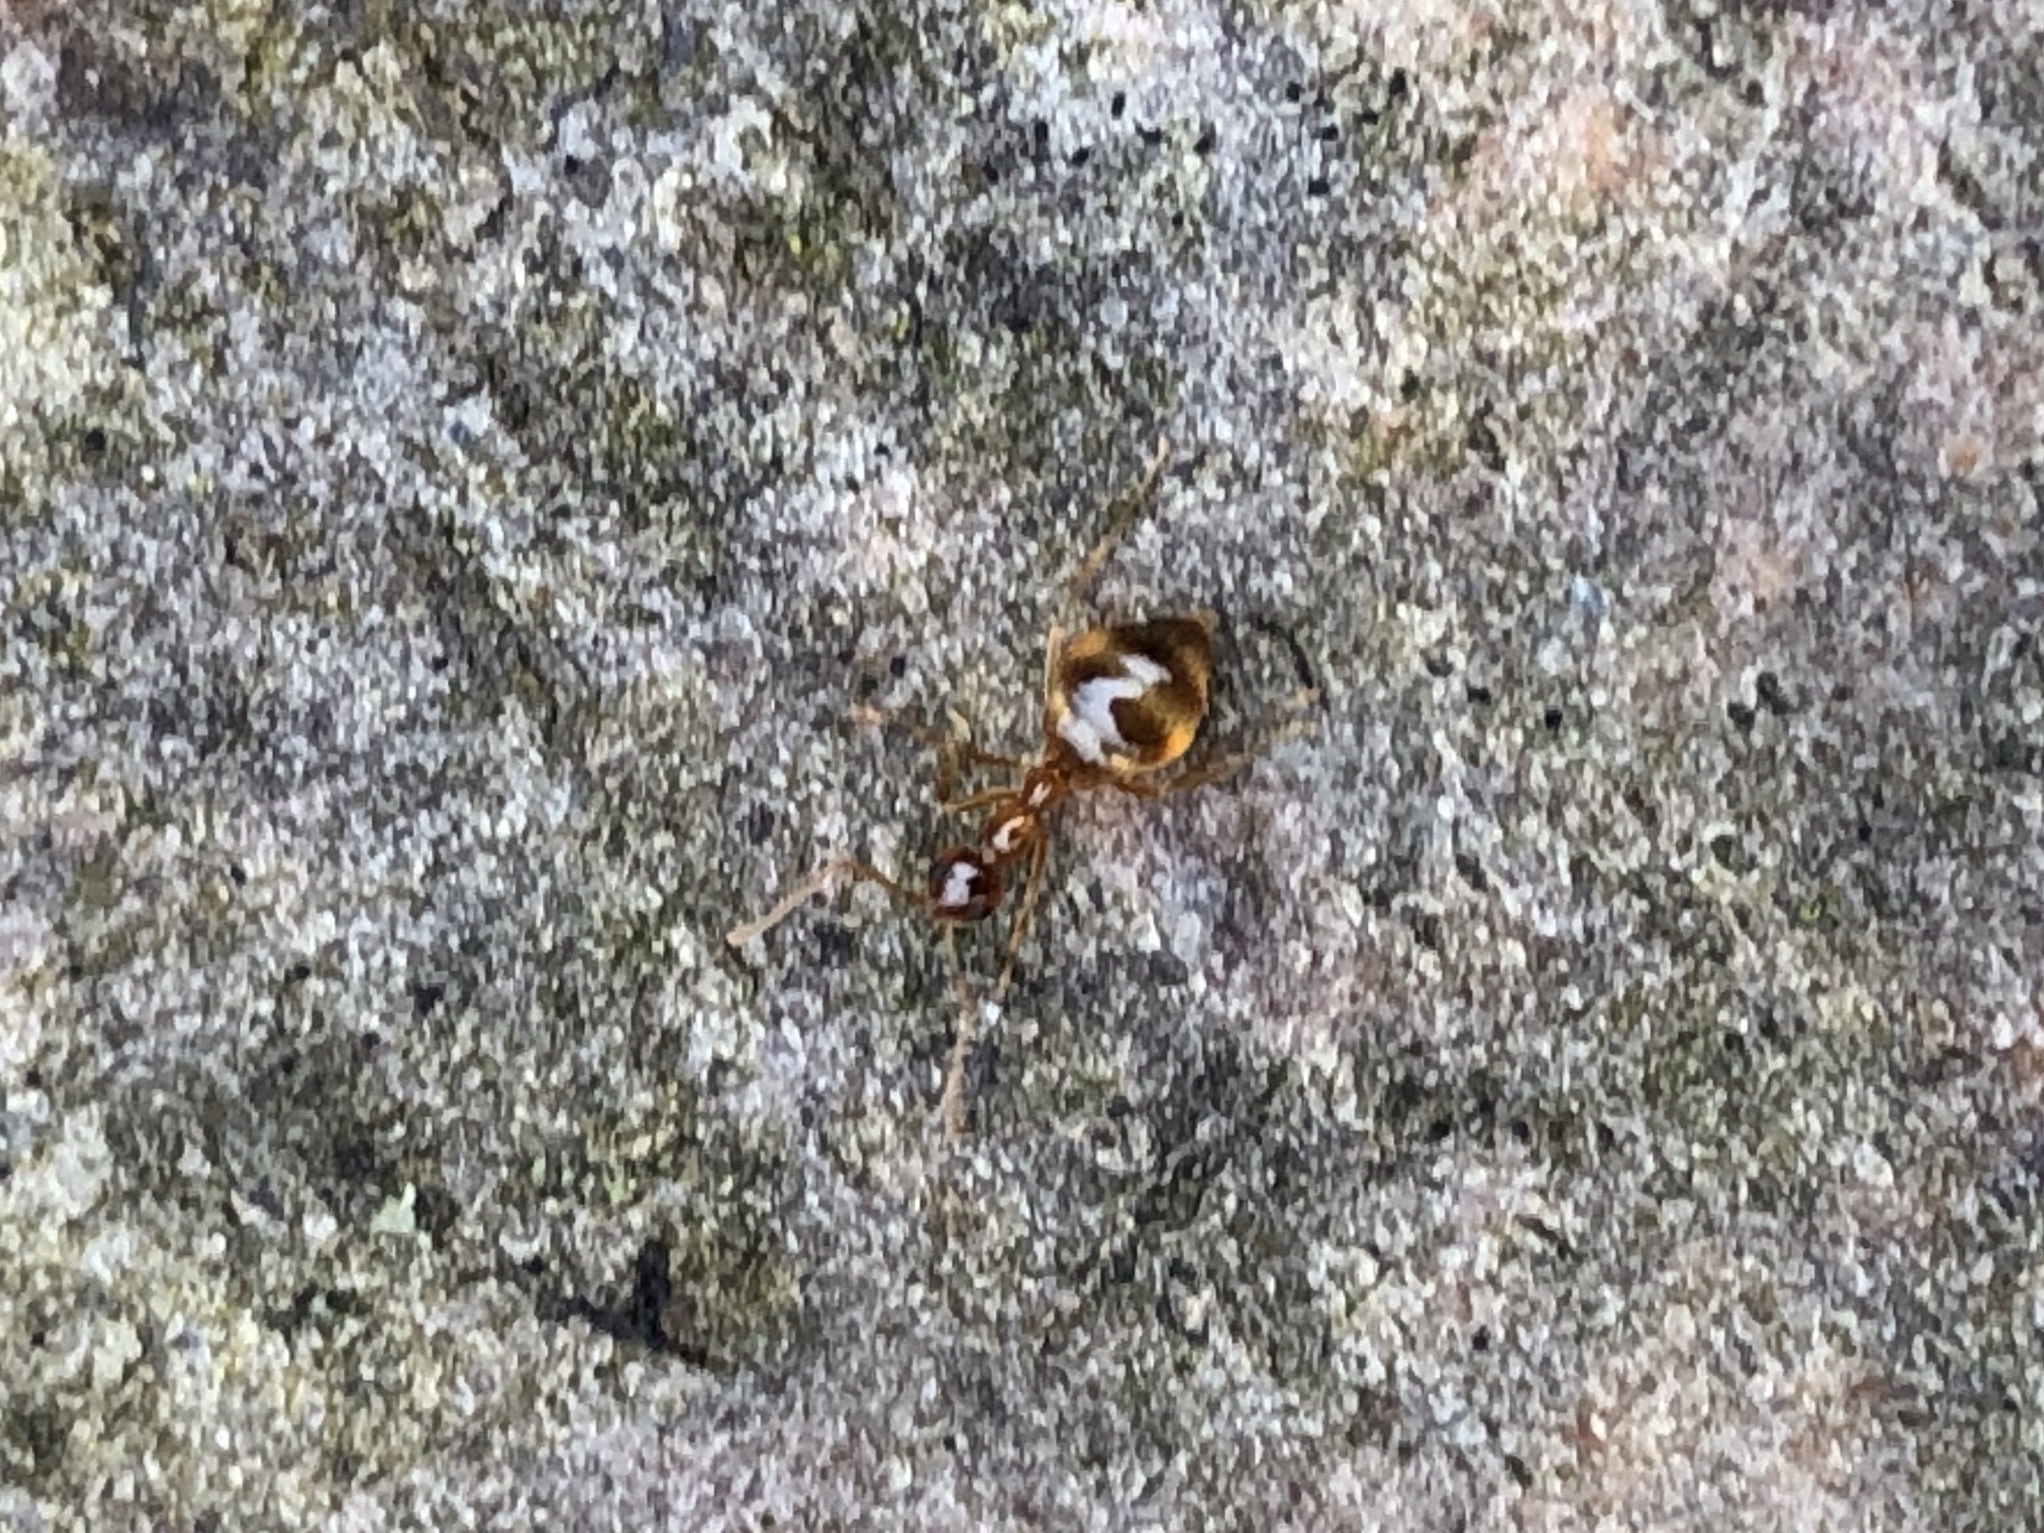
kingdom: Animalia
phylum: Arthropoda
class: Insecta
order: Hymenoptera
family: Formicidae
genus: Prenolepis
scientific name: Prenolepis imparis
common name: Small honey ant
